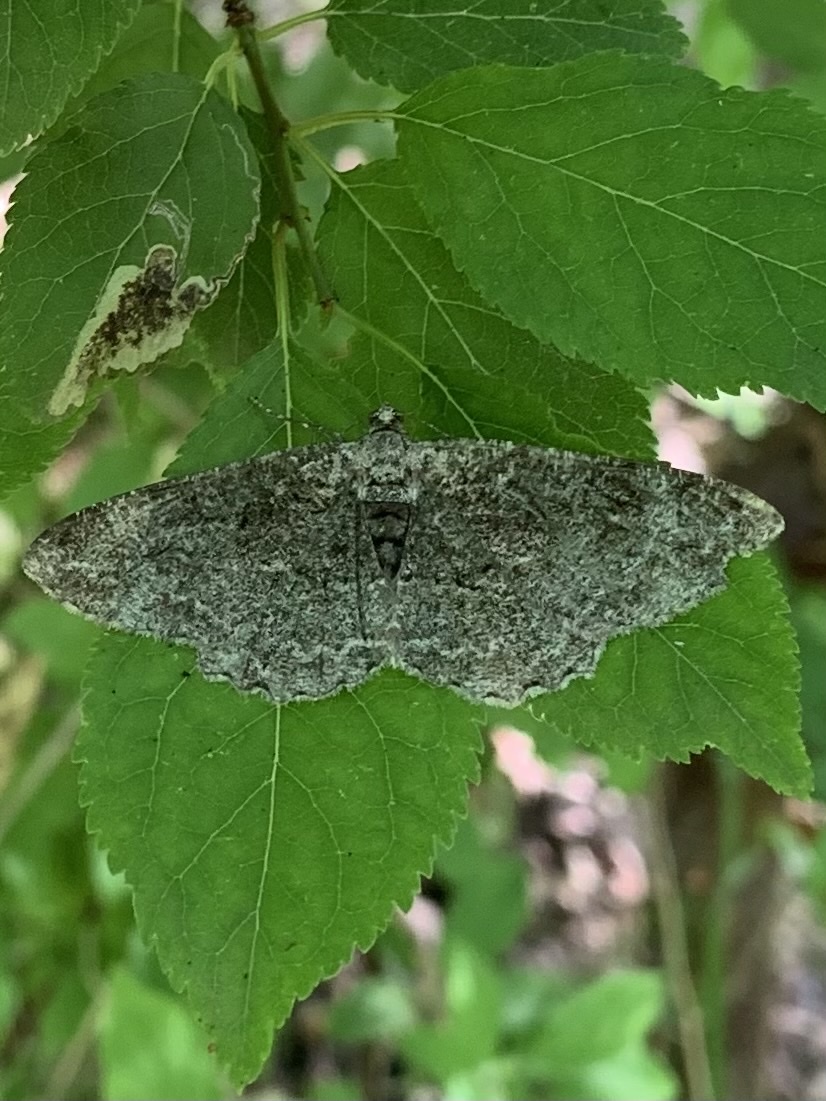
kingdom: Animalia
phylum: Arthropoda
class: Insecta
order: Lepidoptera
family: Geometridae
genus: Alcis
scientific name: Alcis repandata
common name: Mottled beauty
